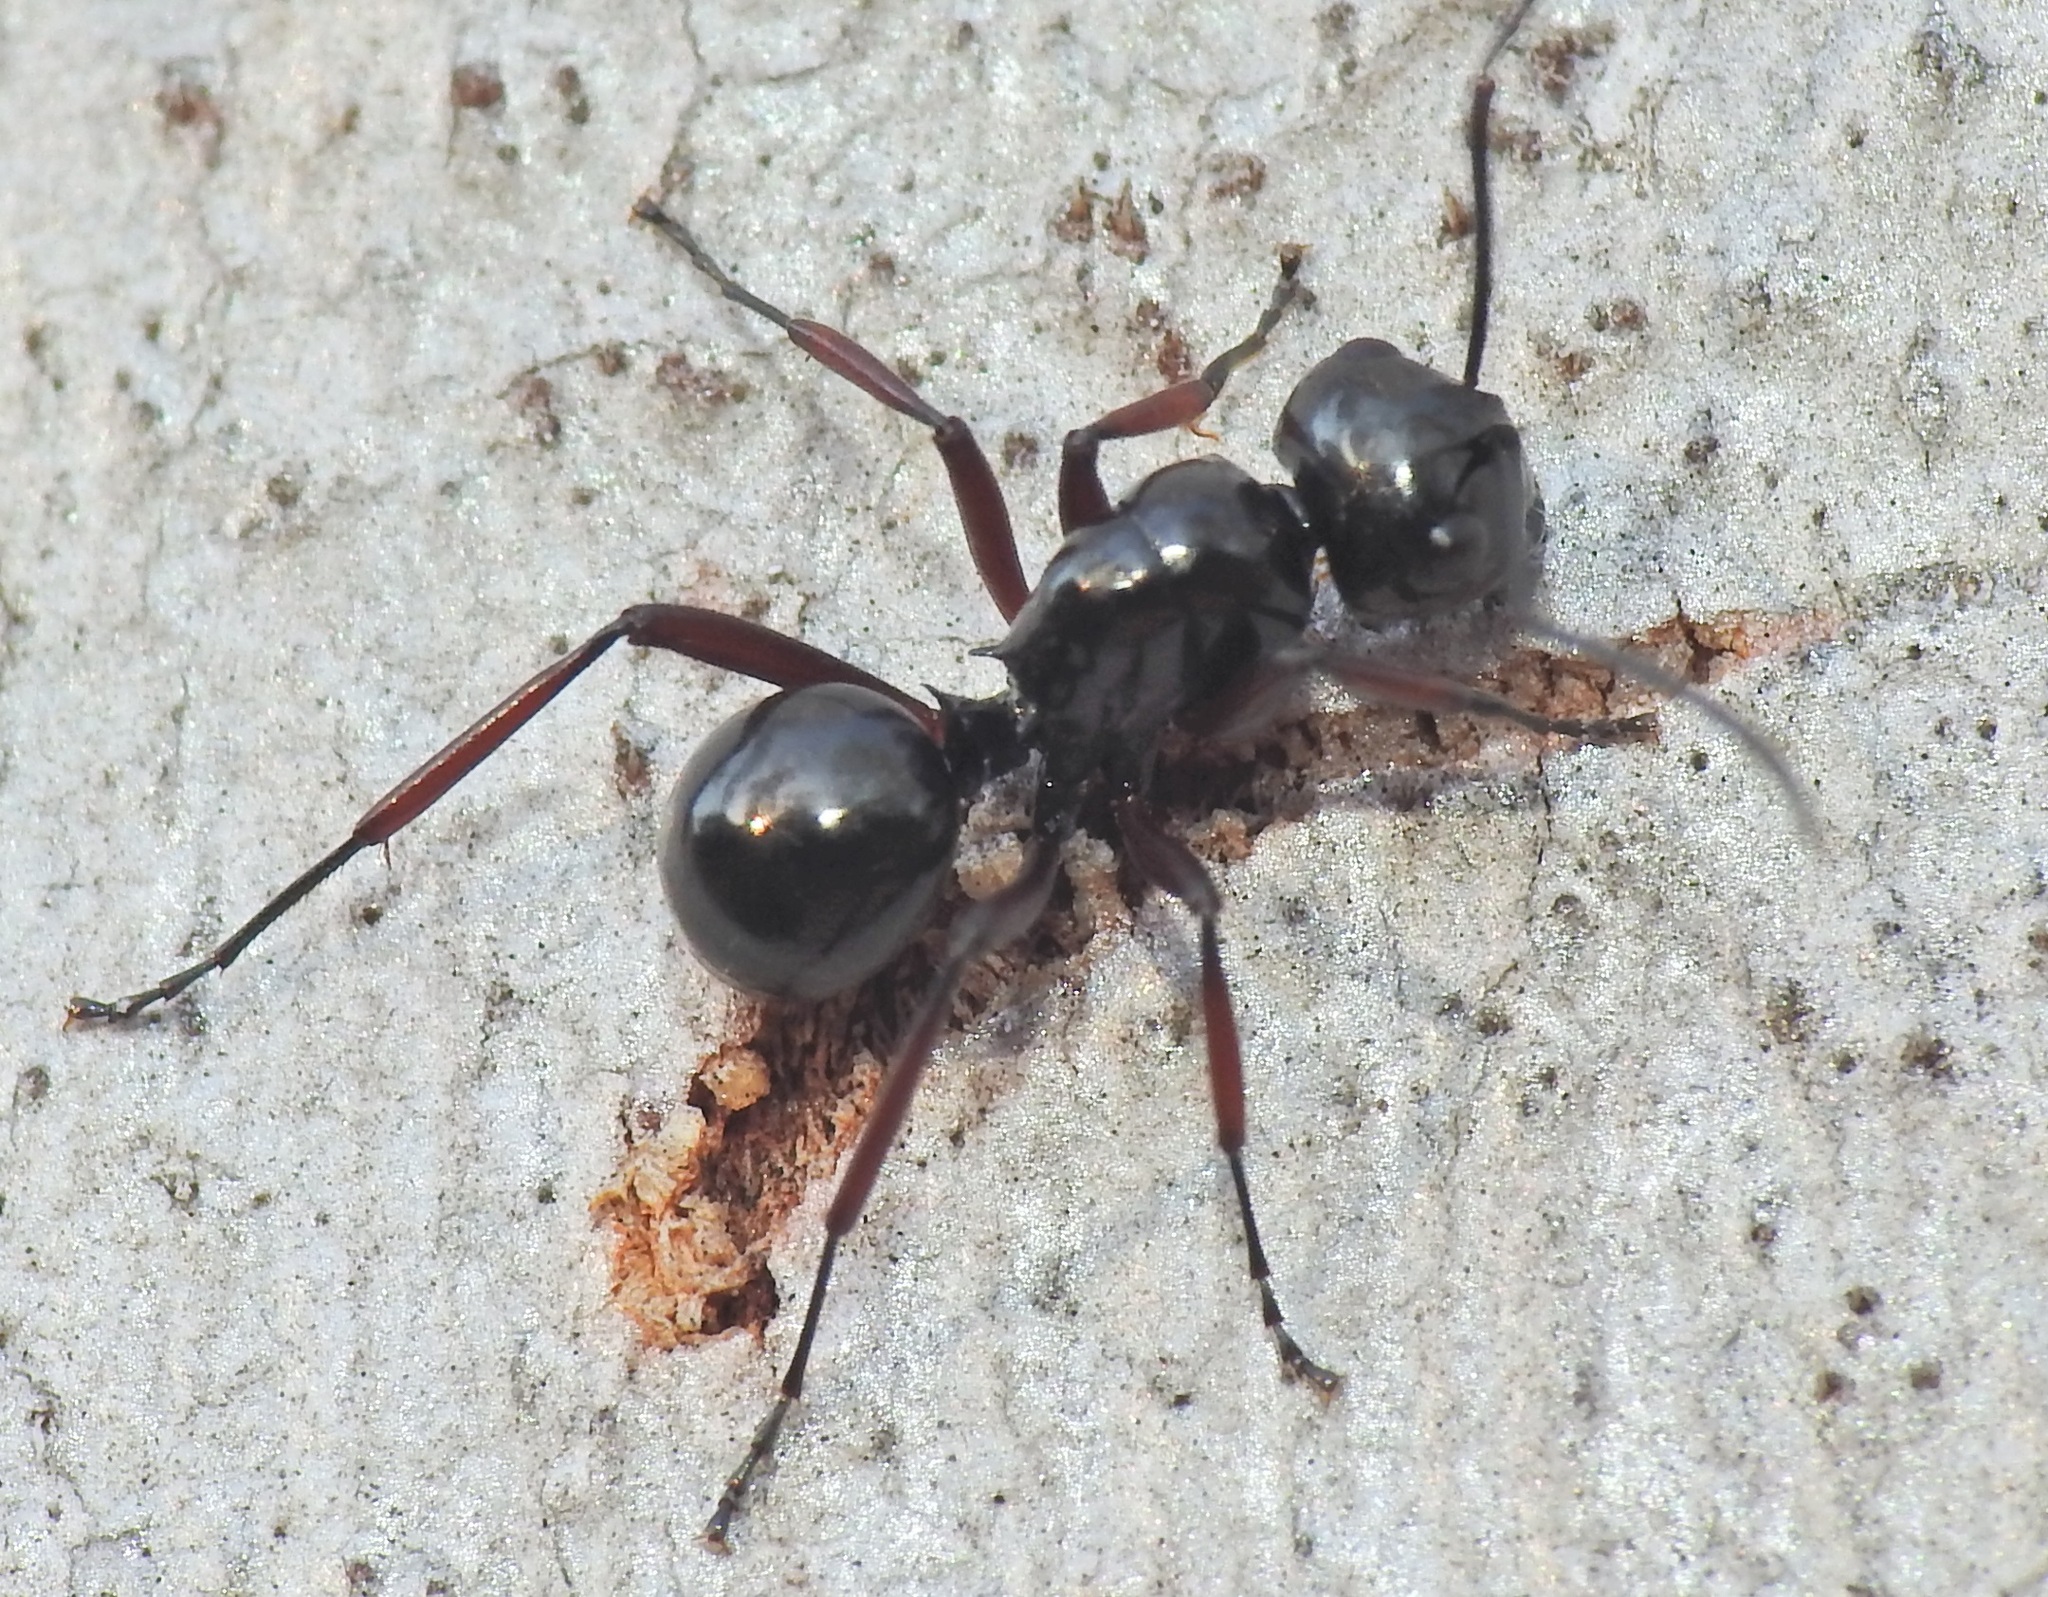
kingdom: Animalia
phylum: Arthropoda
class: Insecta
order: Hymenoptera
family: Formicidae
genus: Polyrhachis
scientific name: Polyrhachis australis
